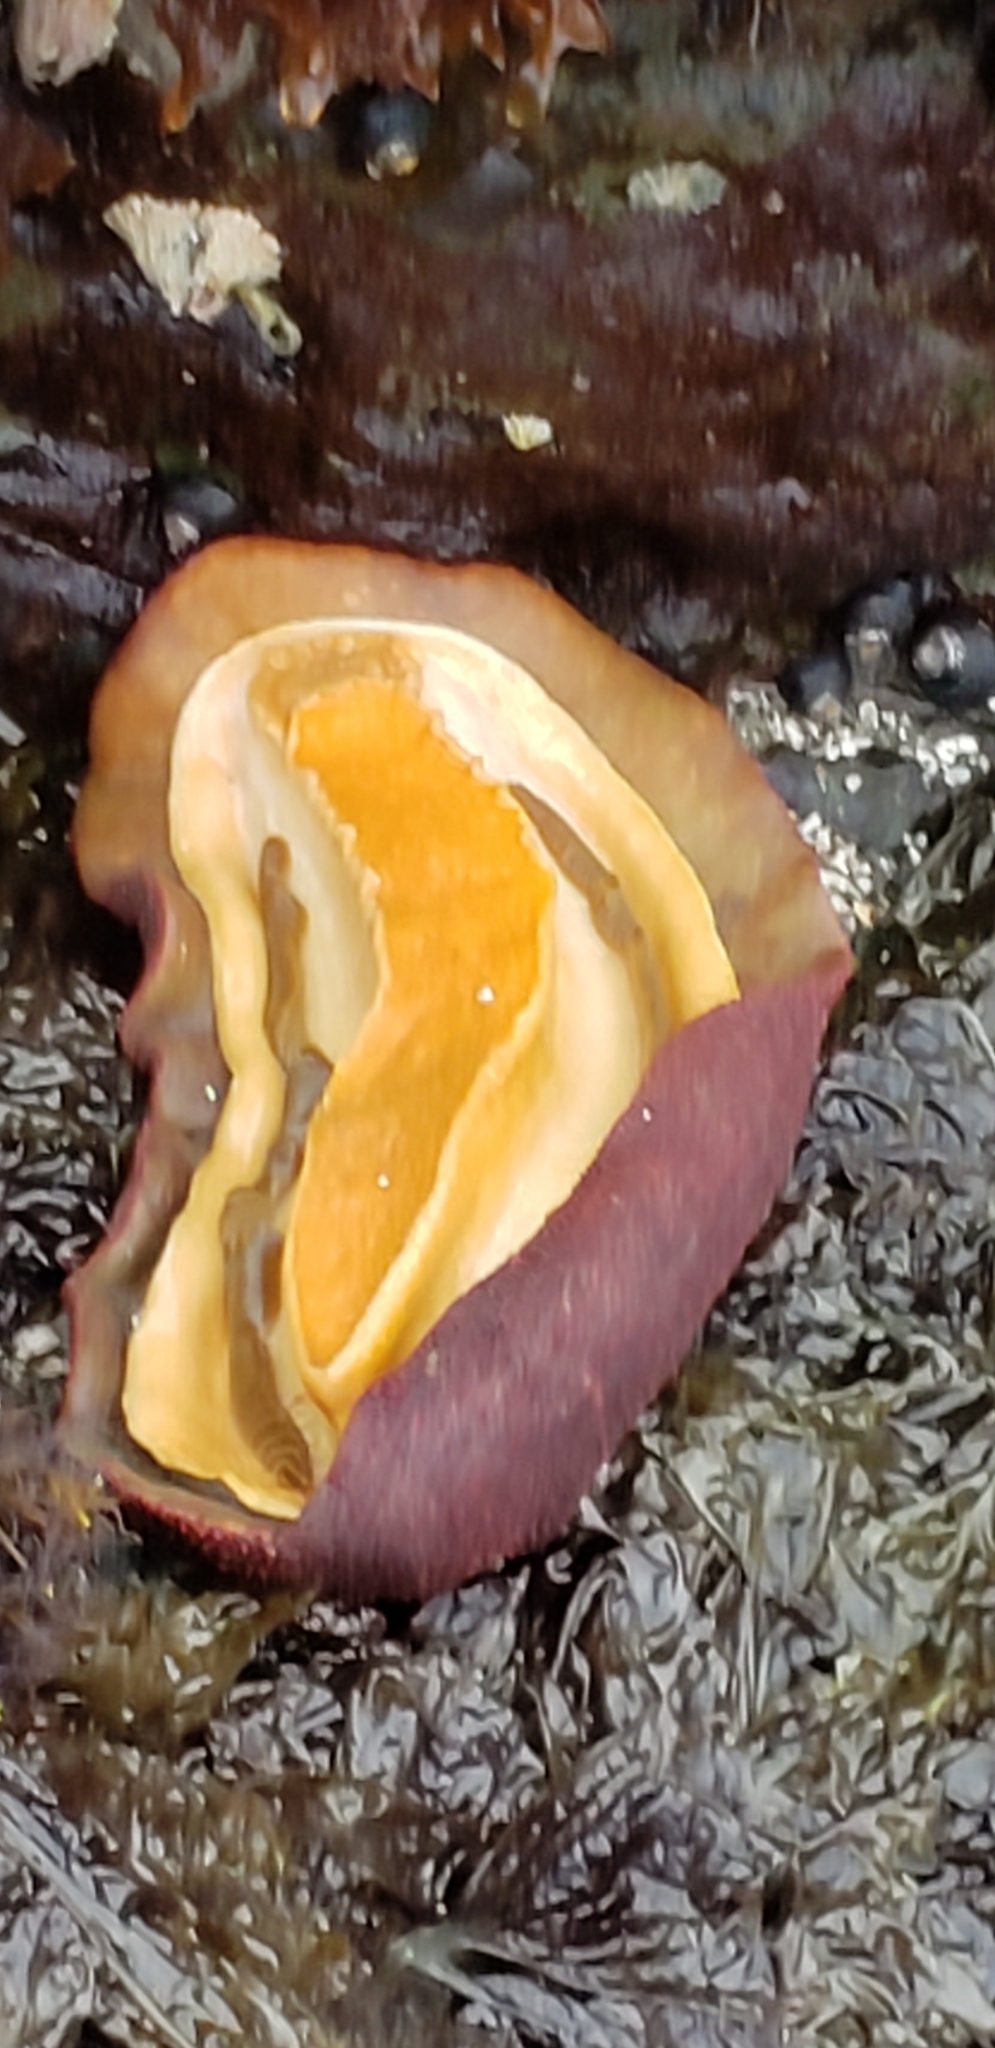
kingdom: Animalia
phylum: Mollusca
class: Polyplacophora
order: Chitonida
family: Acanthochitonidae
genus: Cryptochiton
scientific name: Cryptochiton stelleri
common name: Giant pacific chiton
